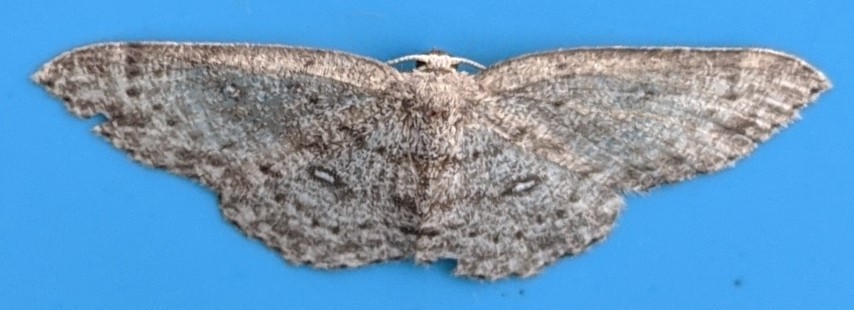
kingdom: Animalia
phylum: Arthropoda
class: Insecta
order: Lepidoptera
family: Geometridae
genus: Cyclophora
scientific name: Cyclophora pendulinaria
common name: Sweet fern geometer
